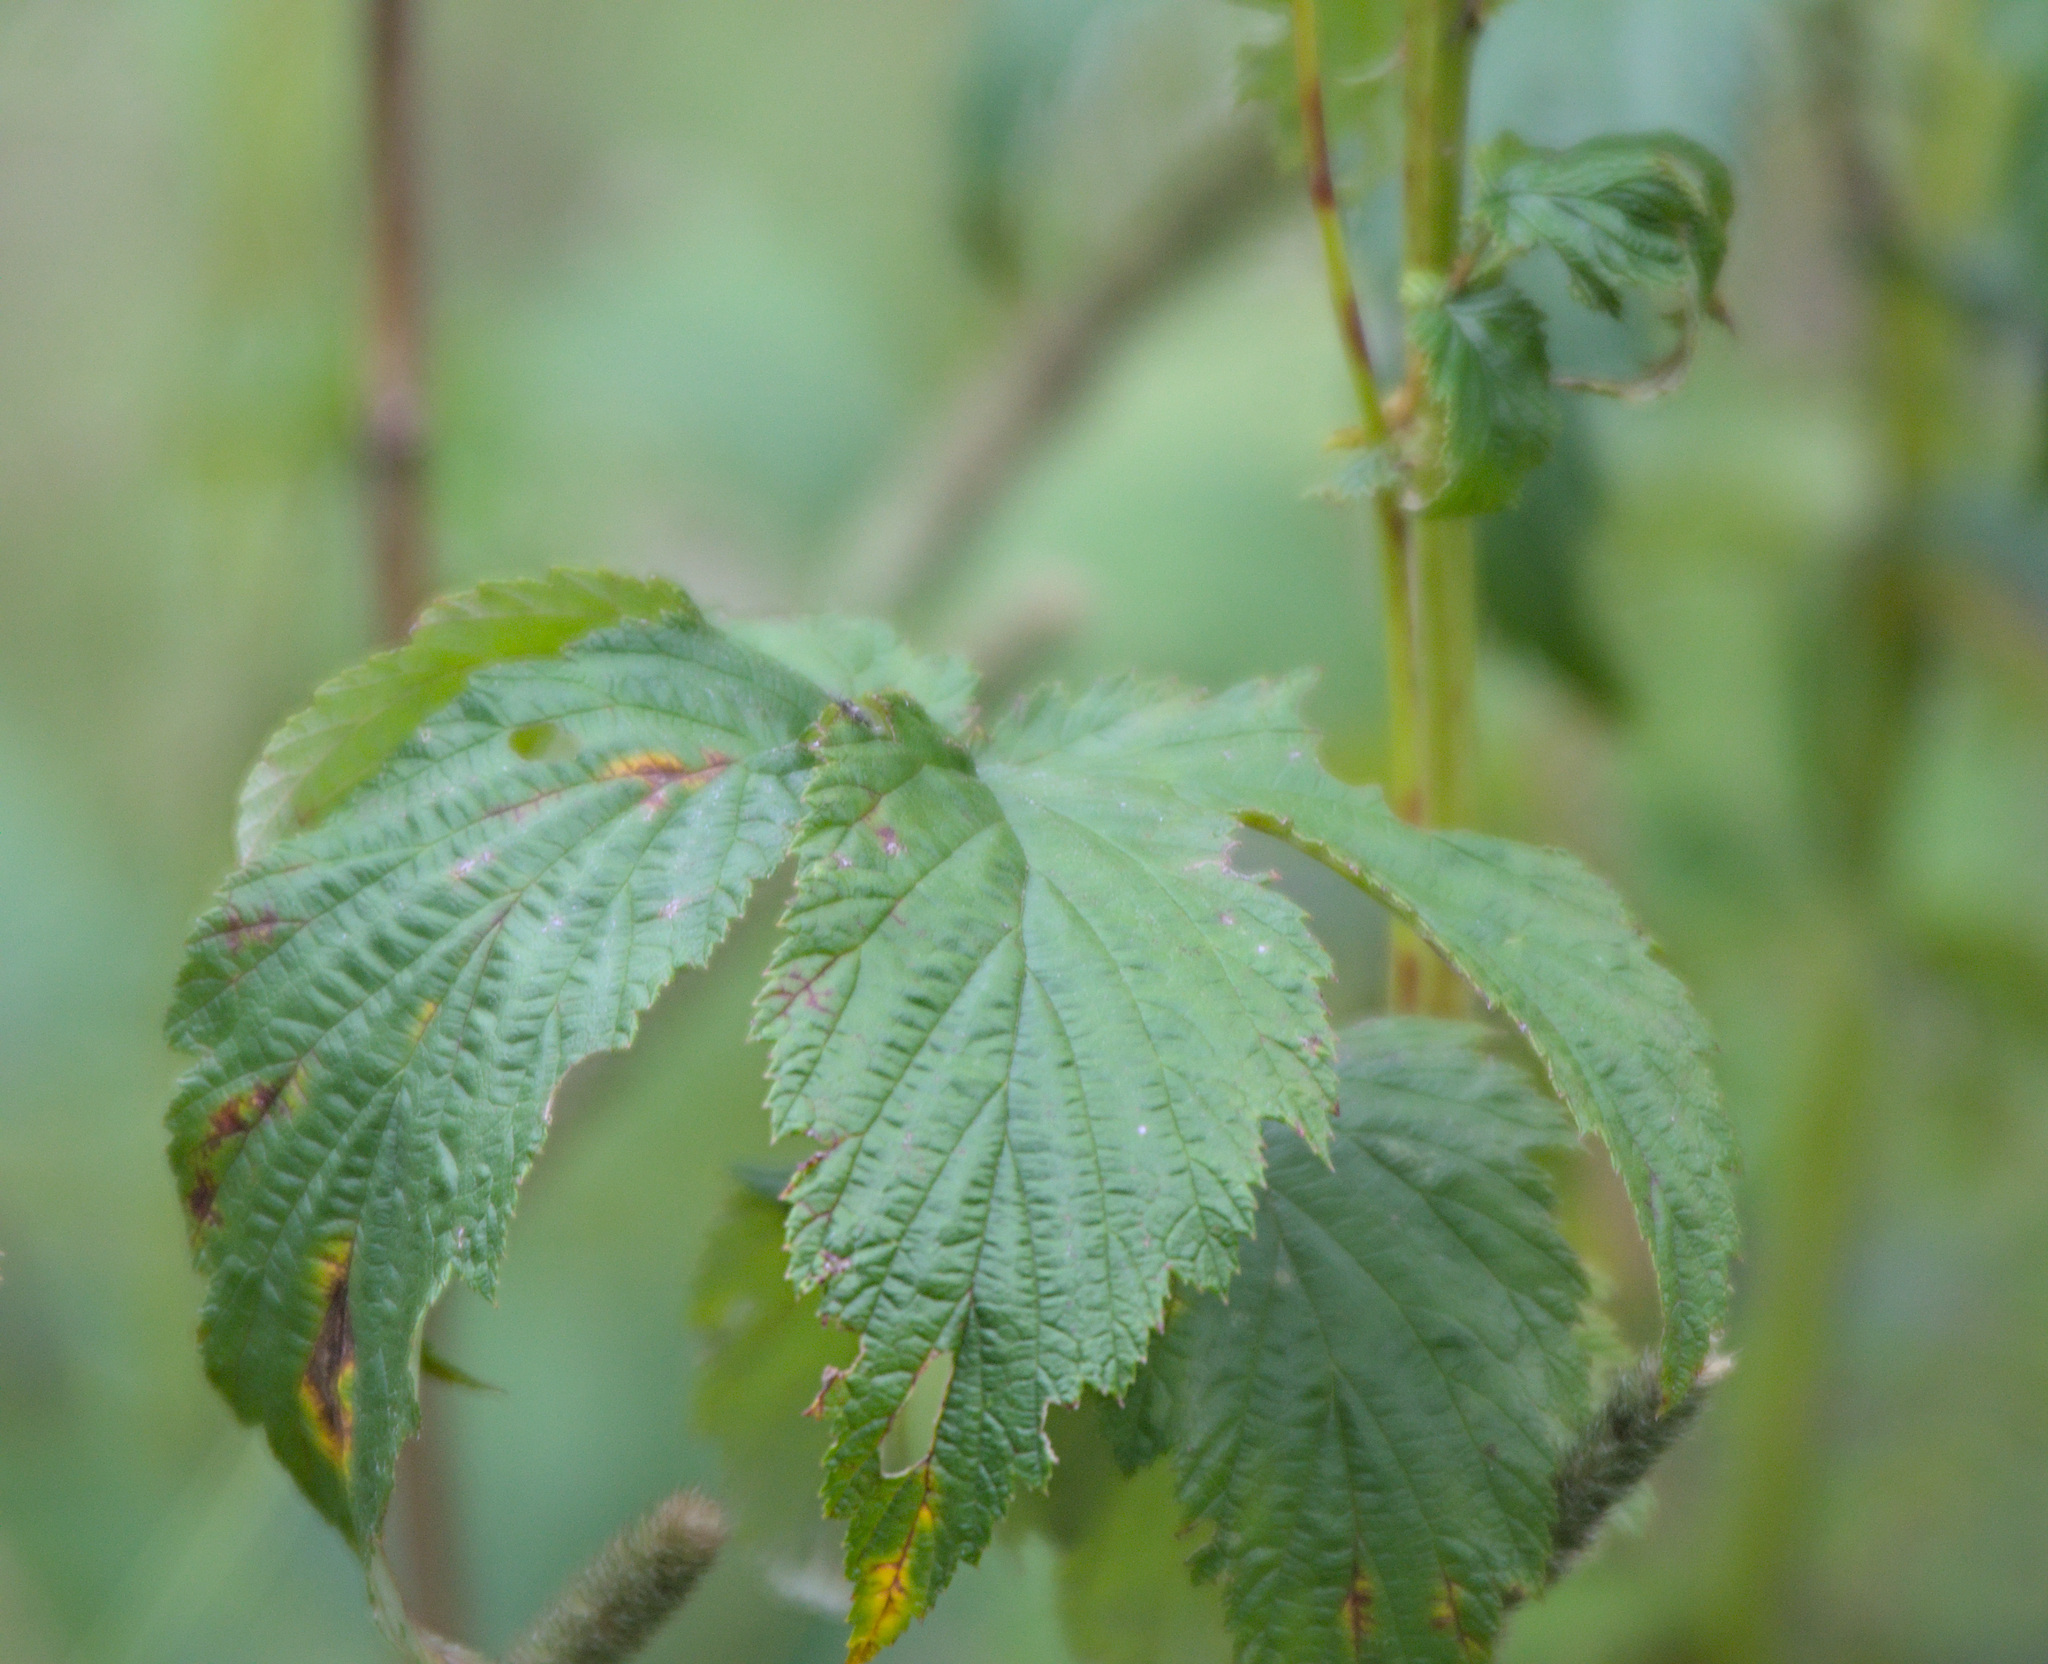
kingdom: Plantae
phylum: Tracheophyta
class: Magnoliopsida
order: Rosales
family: Rosaceae
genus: Filipendula
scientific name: Filipendula ulmaria
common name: Meadowsweet
